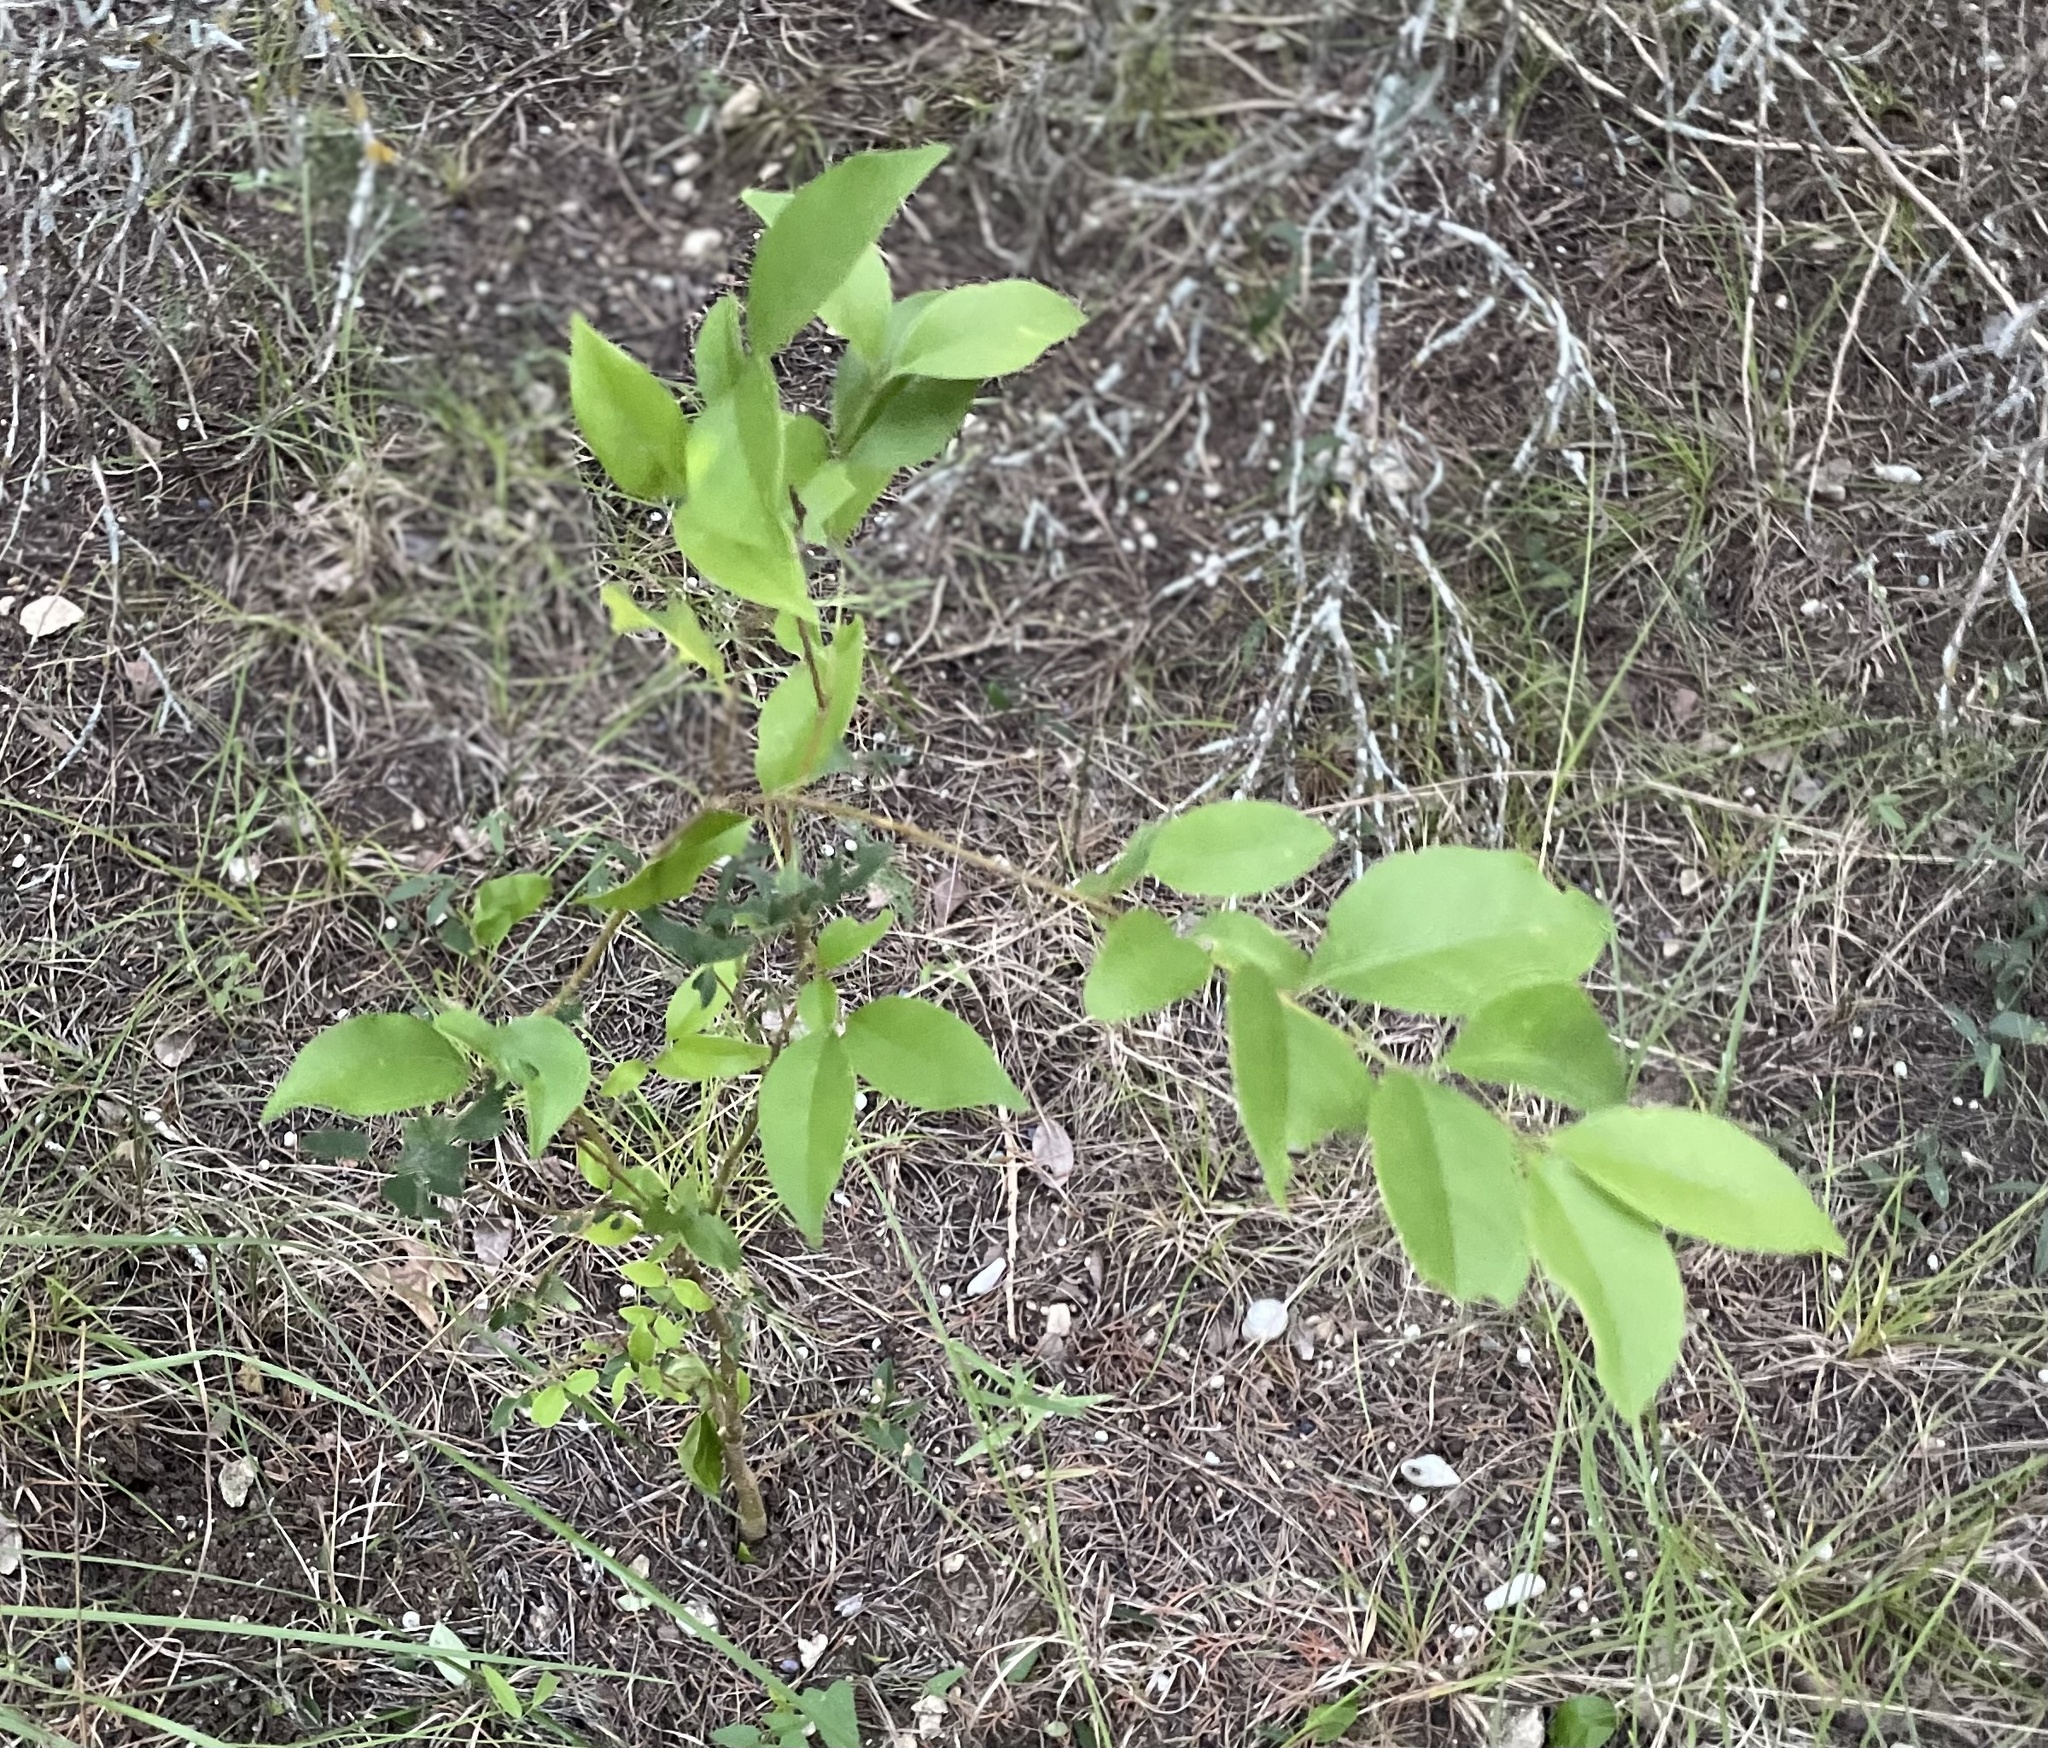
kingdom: Plantae
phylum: Tracheophyta
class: Magnoliopsida
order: Lamiales
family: Oleaceae
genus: Ligustrum
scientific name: Ligustrum lucidum
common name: Glossy privet
